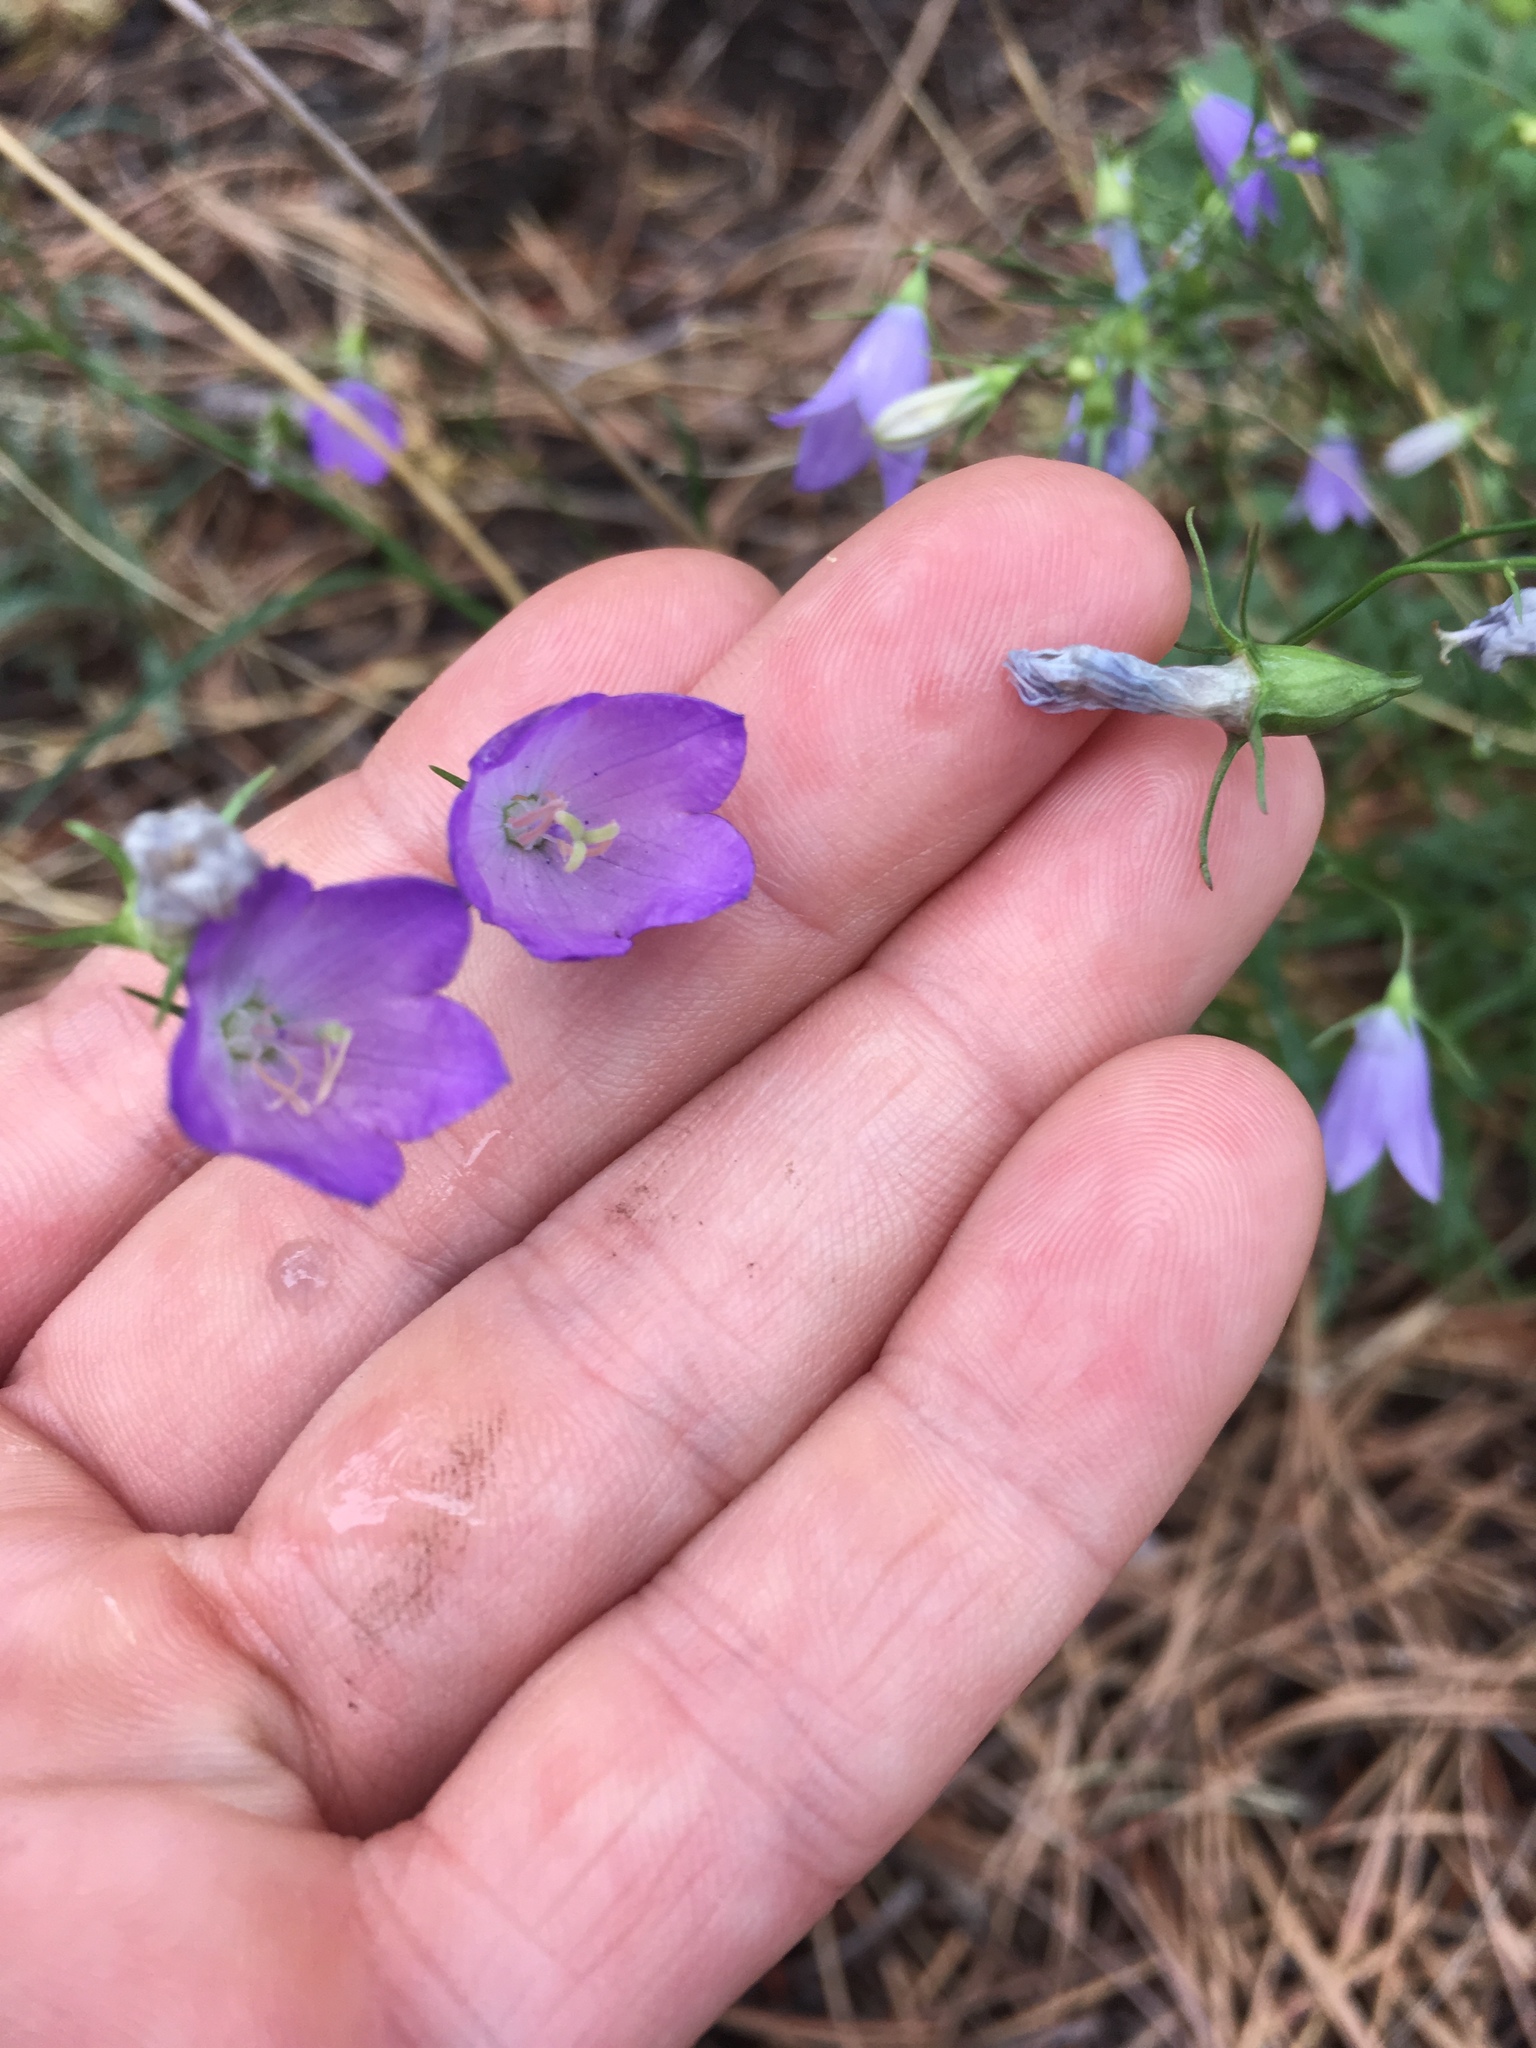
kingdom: Plantae
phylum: Tracheophyta
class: Magnoliopsida
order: Asterales
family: Campanulaceae
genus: Campanula
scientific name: Campanula petiolata
